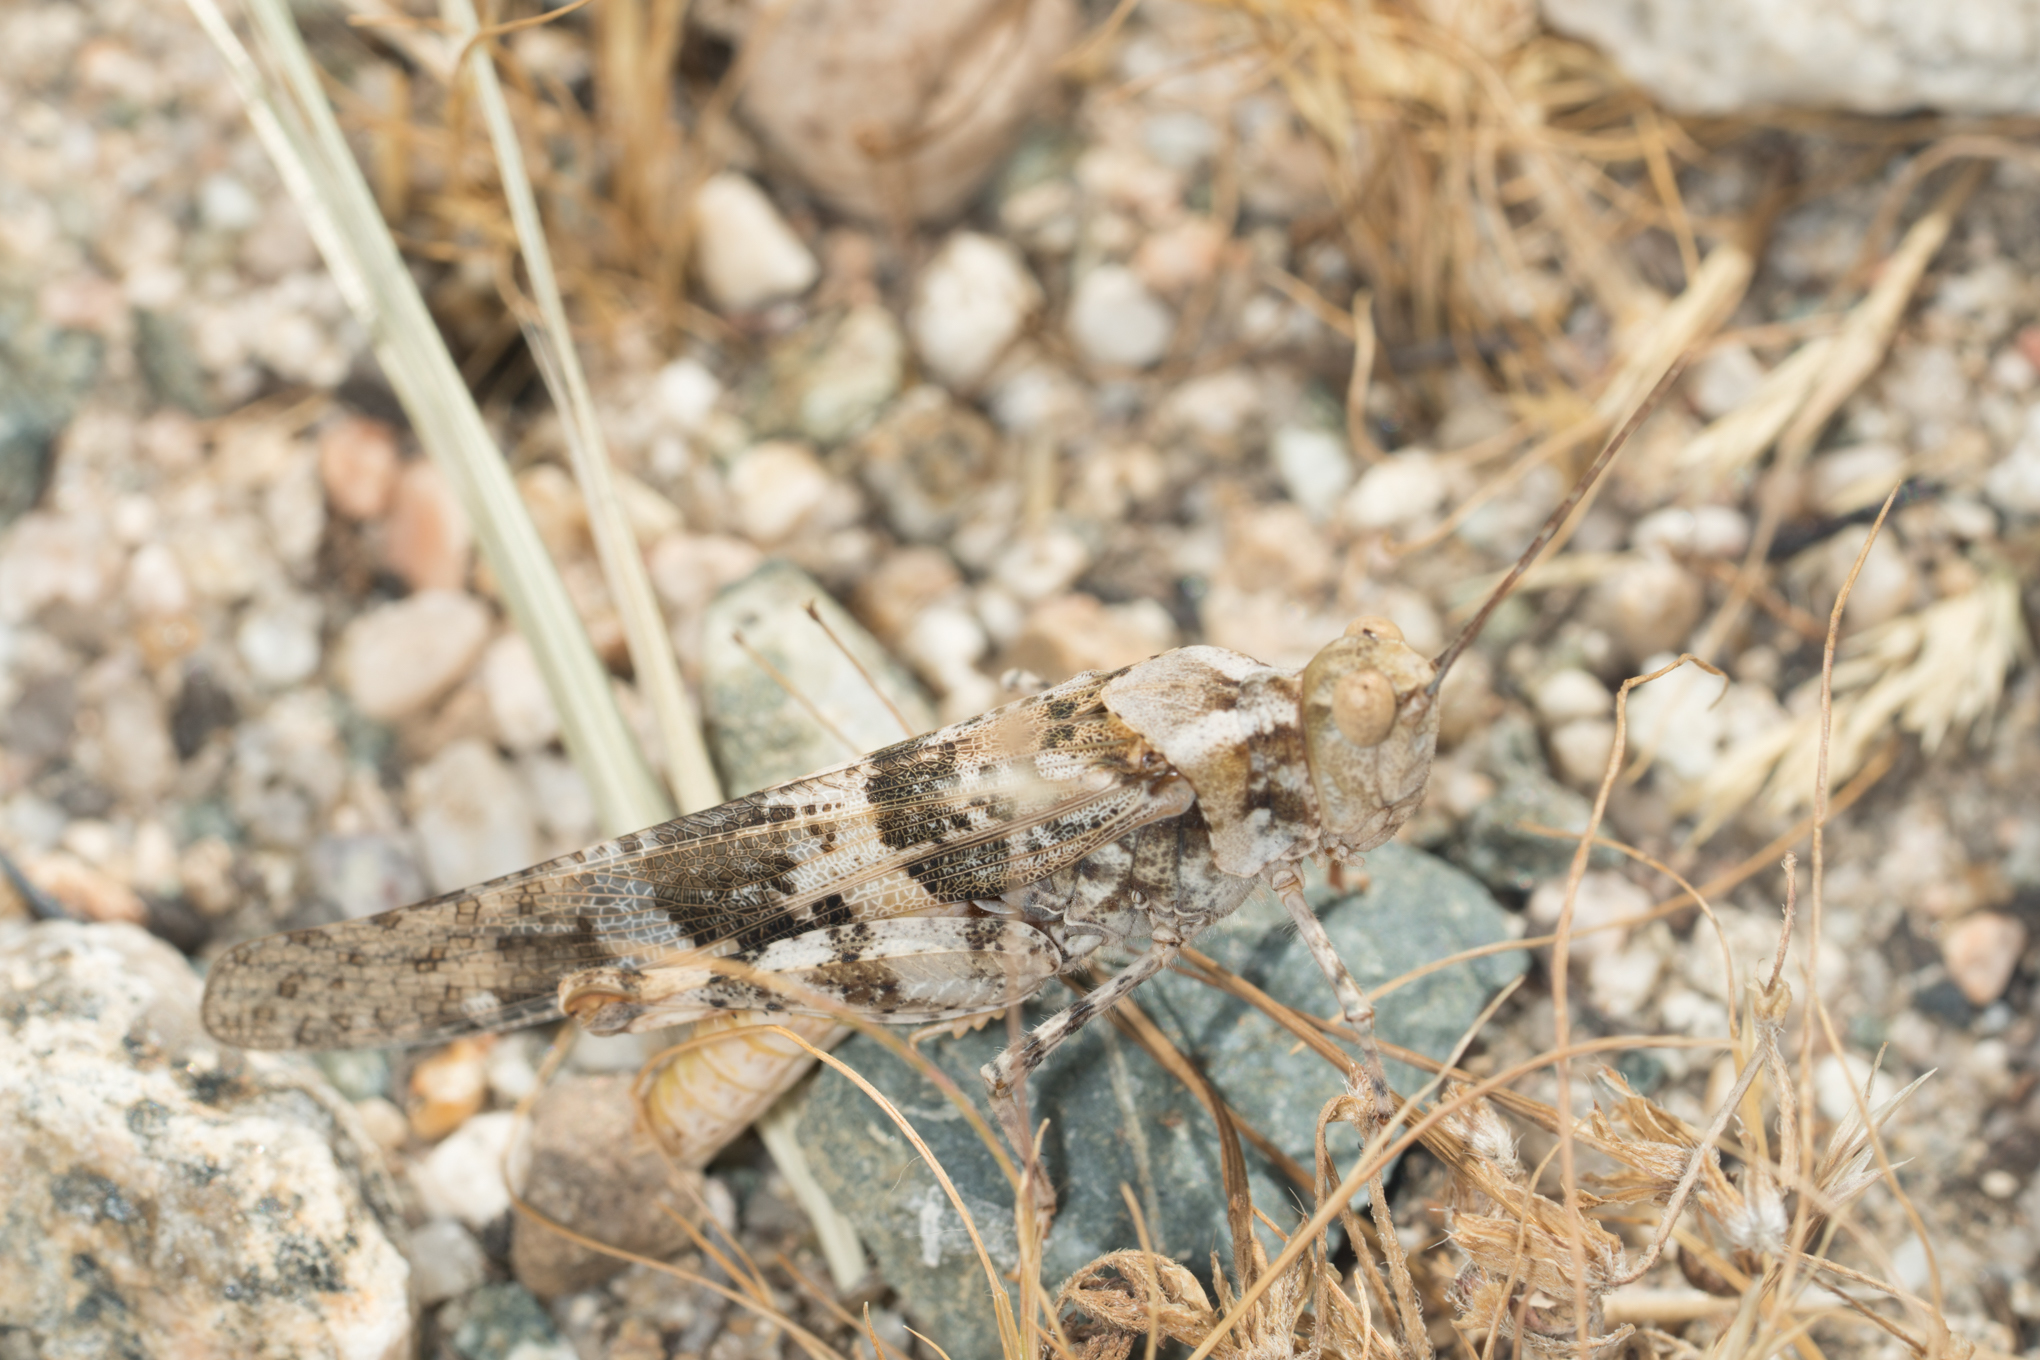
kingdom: Animalia
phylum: Arthropoda
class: Insecta
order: Orthoptera
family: Acrididae
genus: Trimerotropis
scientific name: Trimerotropis pallidipennis
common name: Pallid-winged grasshopper
